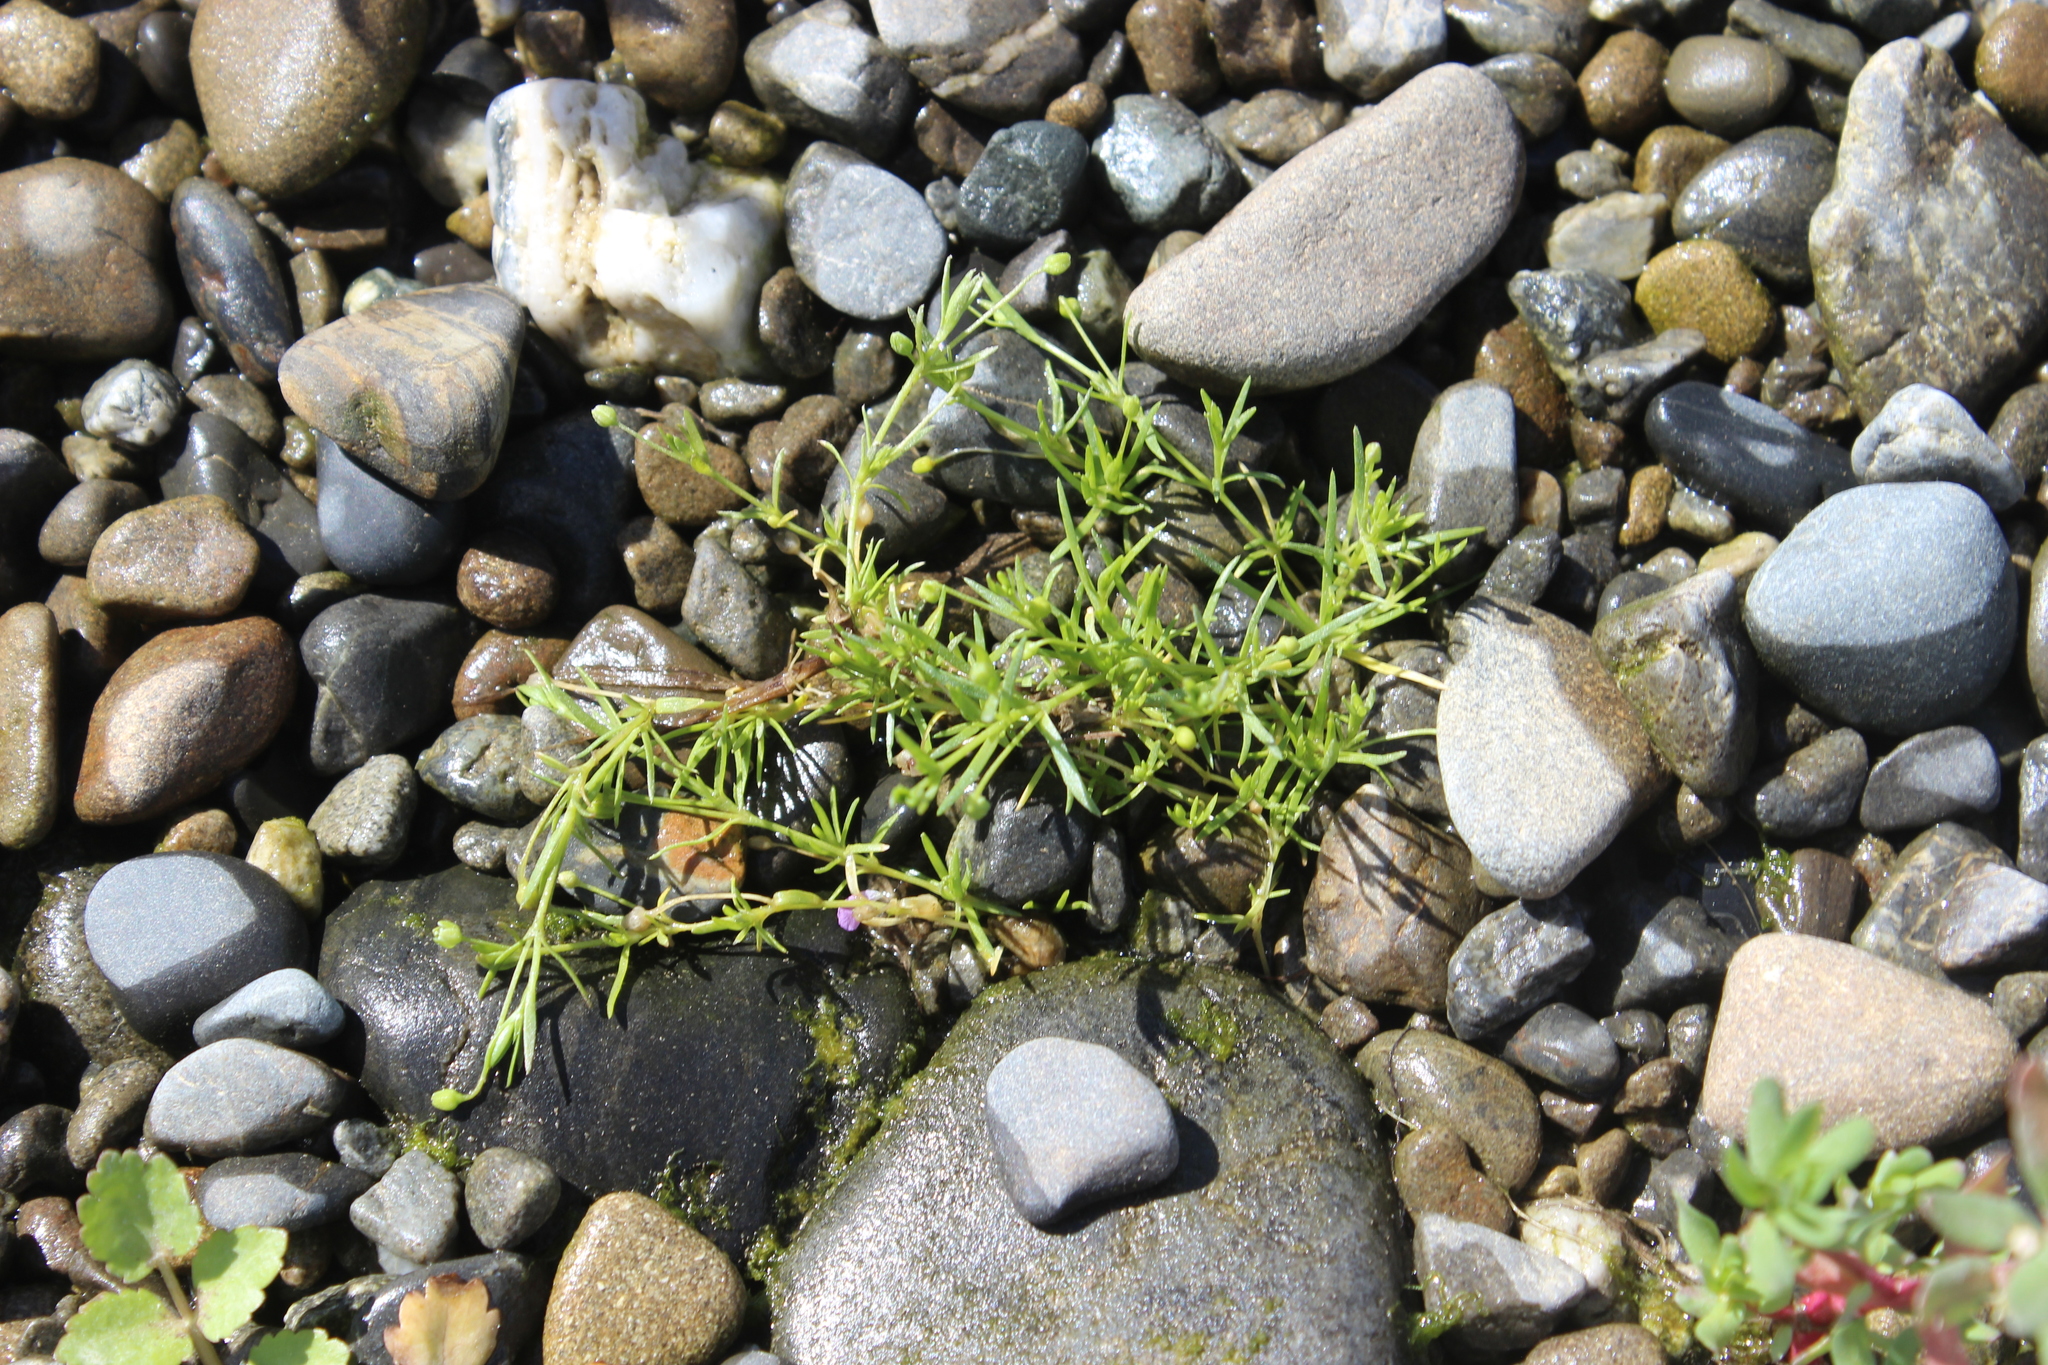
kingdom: Plantae
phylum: Tracheophyta
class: Magnoliopsida
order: Caryophyllales
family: Caryophyllaceae
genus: Sagina
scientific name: Sagina procumbens
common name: Procumbent pearlwort
